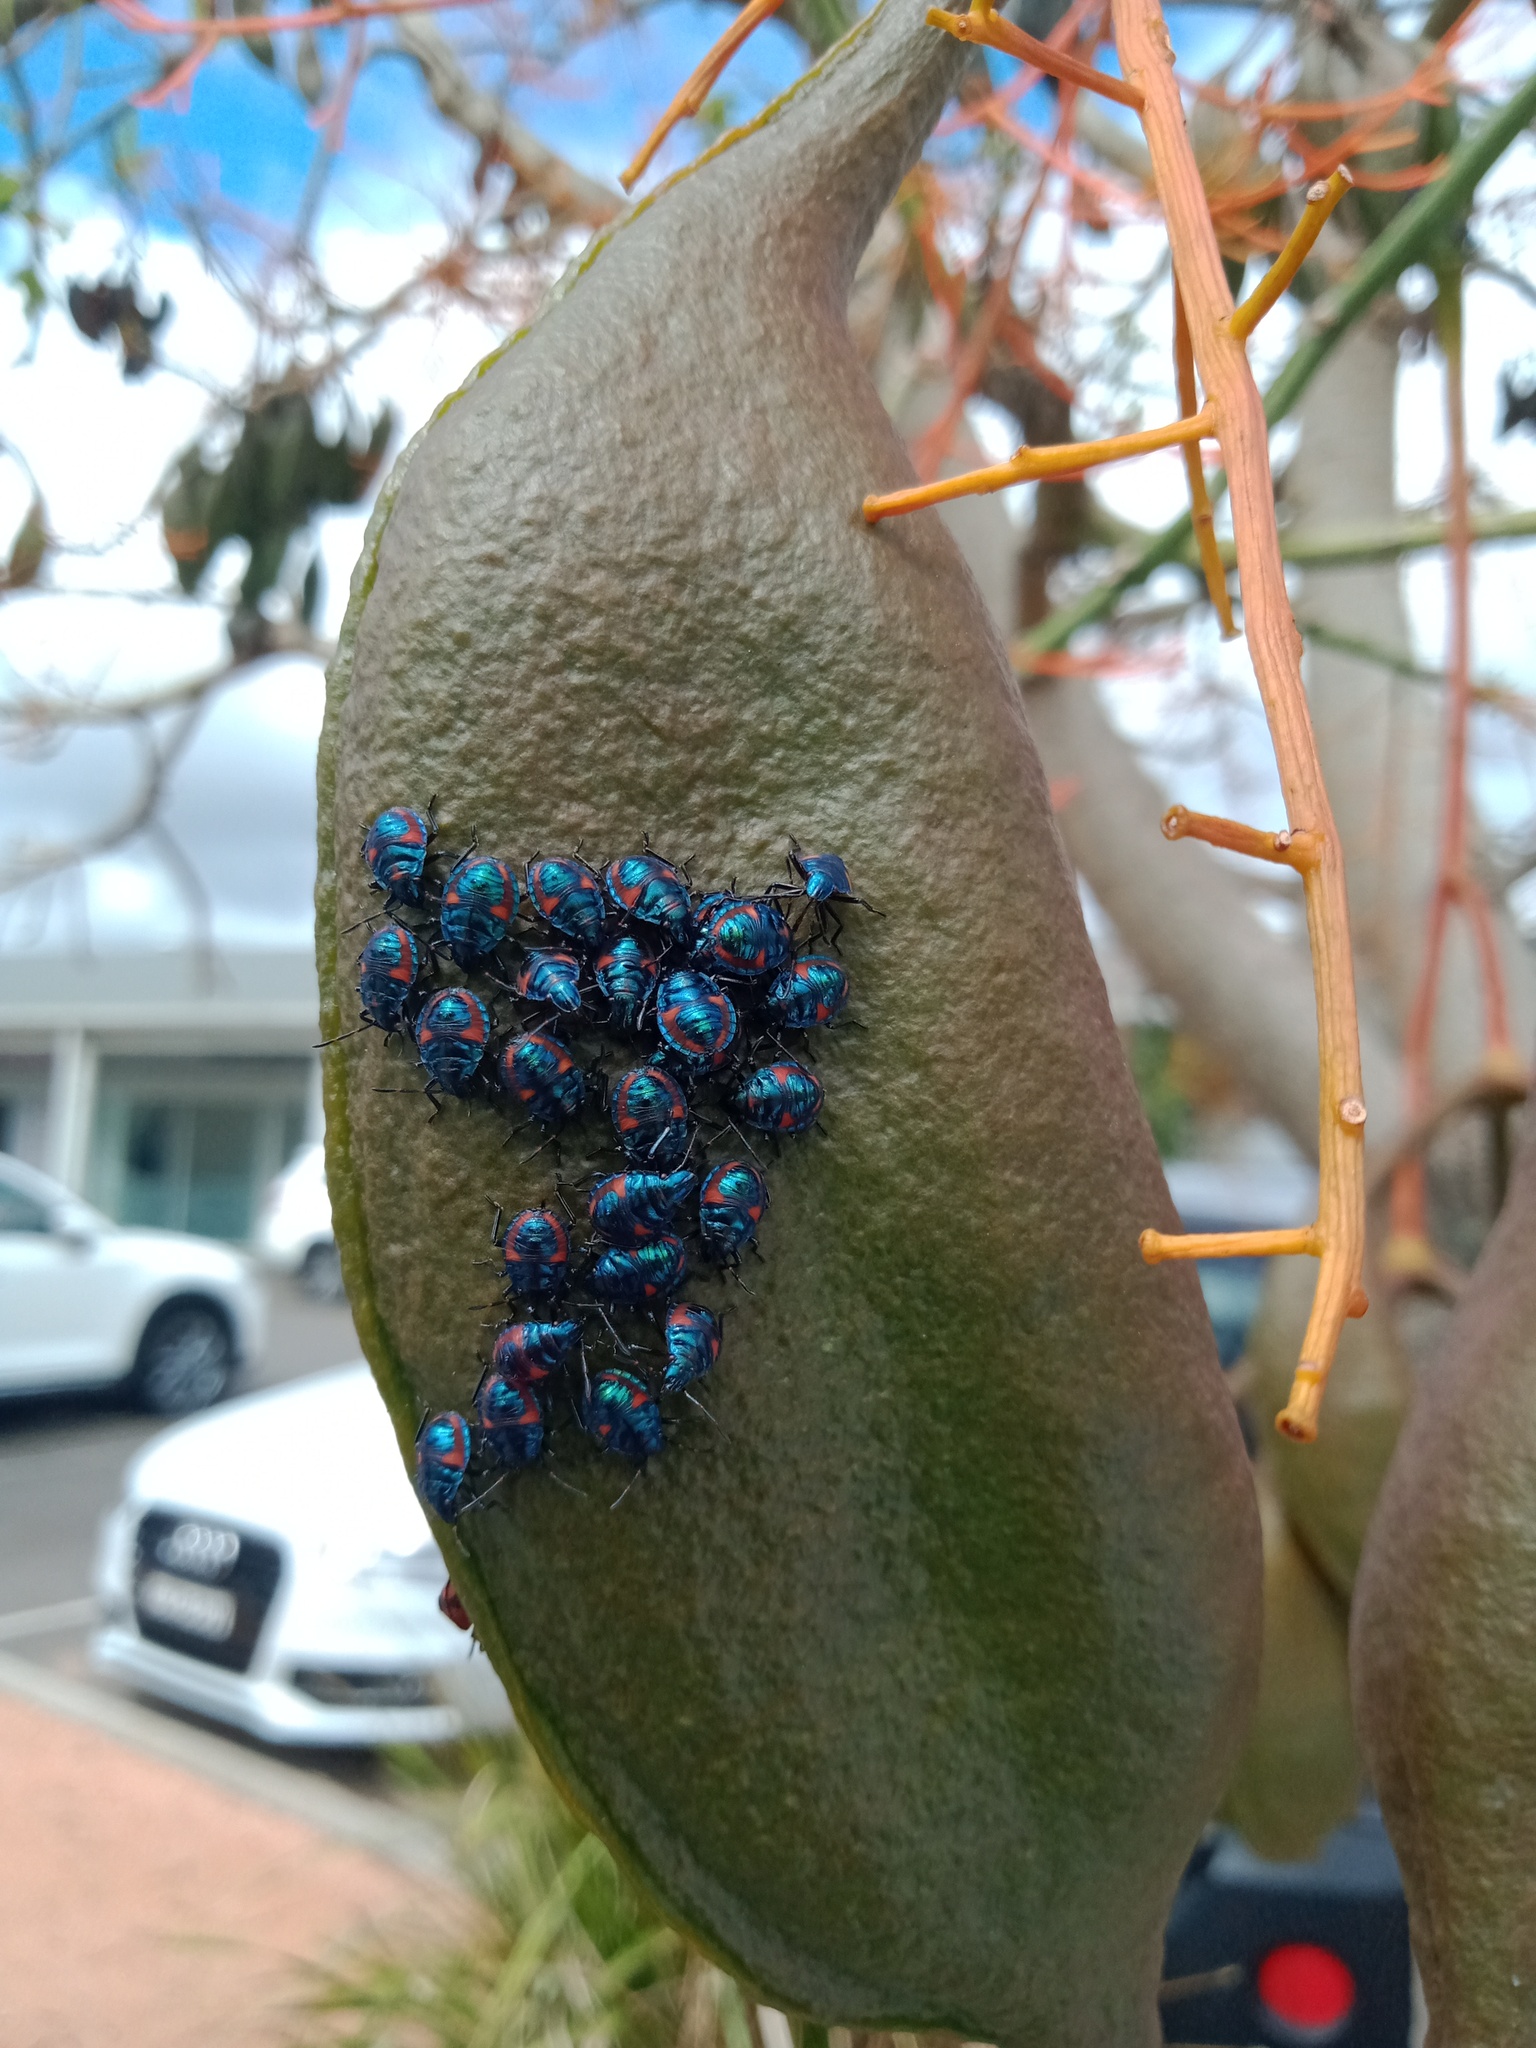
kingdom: Animalia
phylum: Arthropoda
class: Insecta
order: Hemiptera
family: Scutelleridae
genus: Tectocoris
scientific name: Tectocoris diophthalmus
